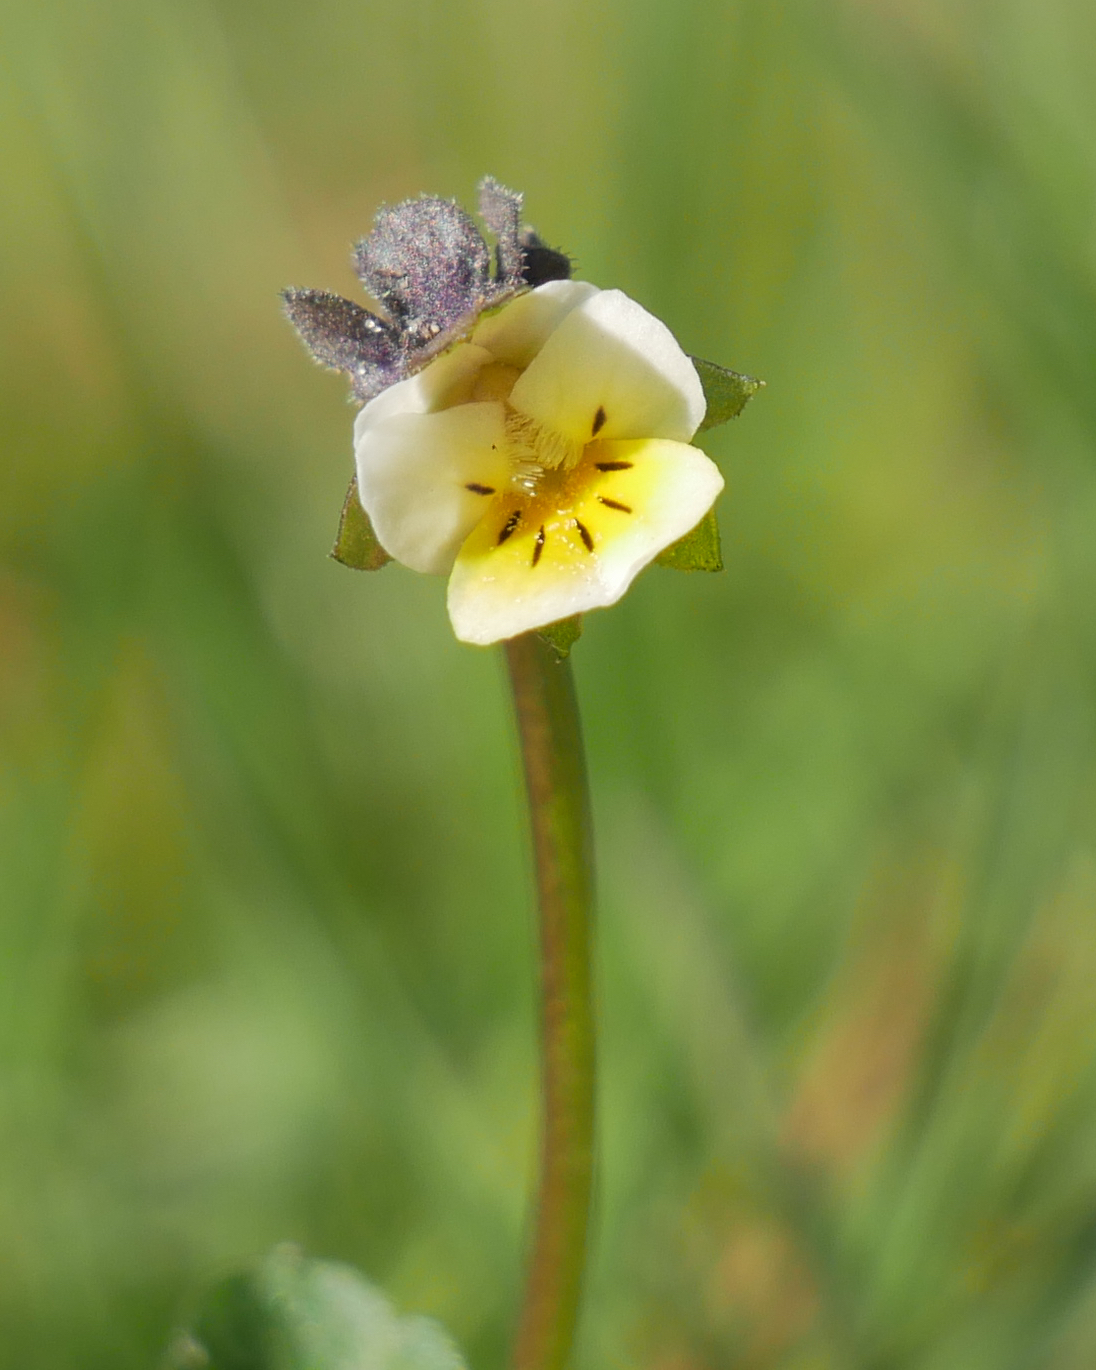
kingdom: Plantae
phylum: Tracheophyta
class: Magnoliopsida
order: Malpighiales
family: Violaceae
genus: Viola
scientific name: Viola arvensis
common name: Field pansy
